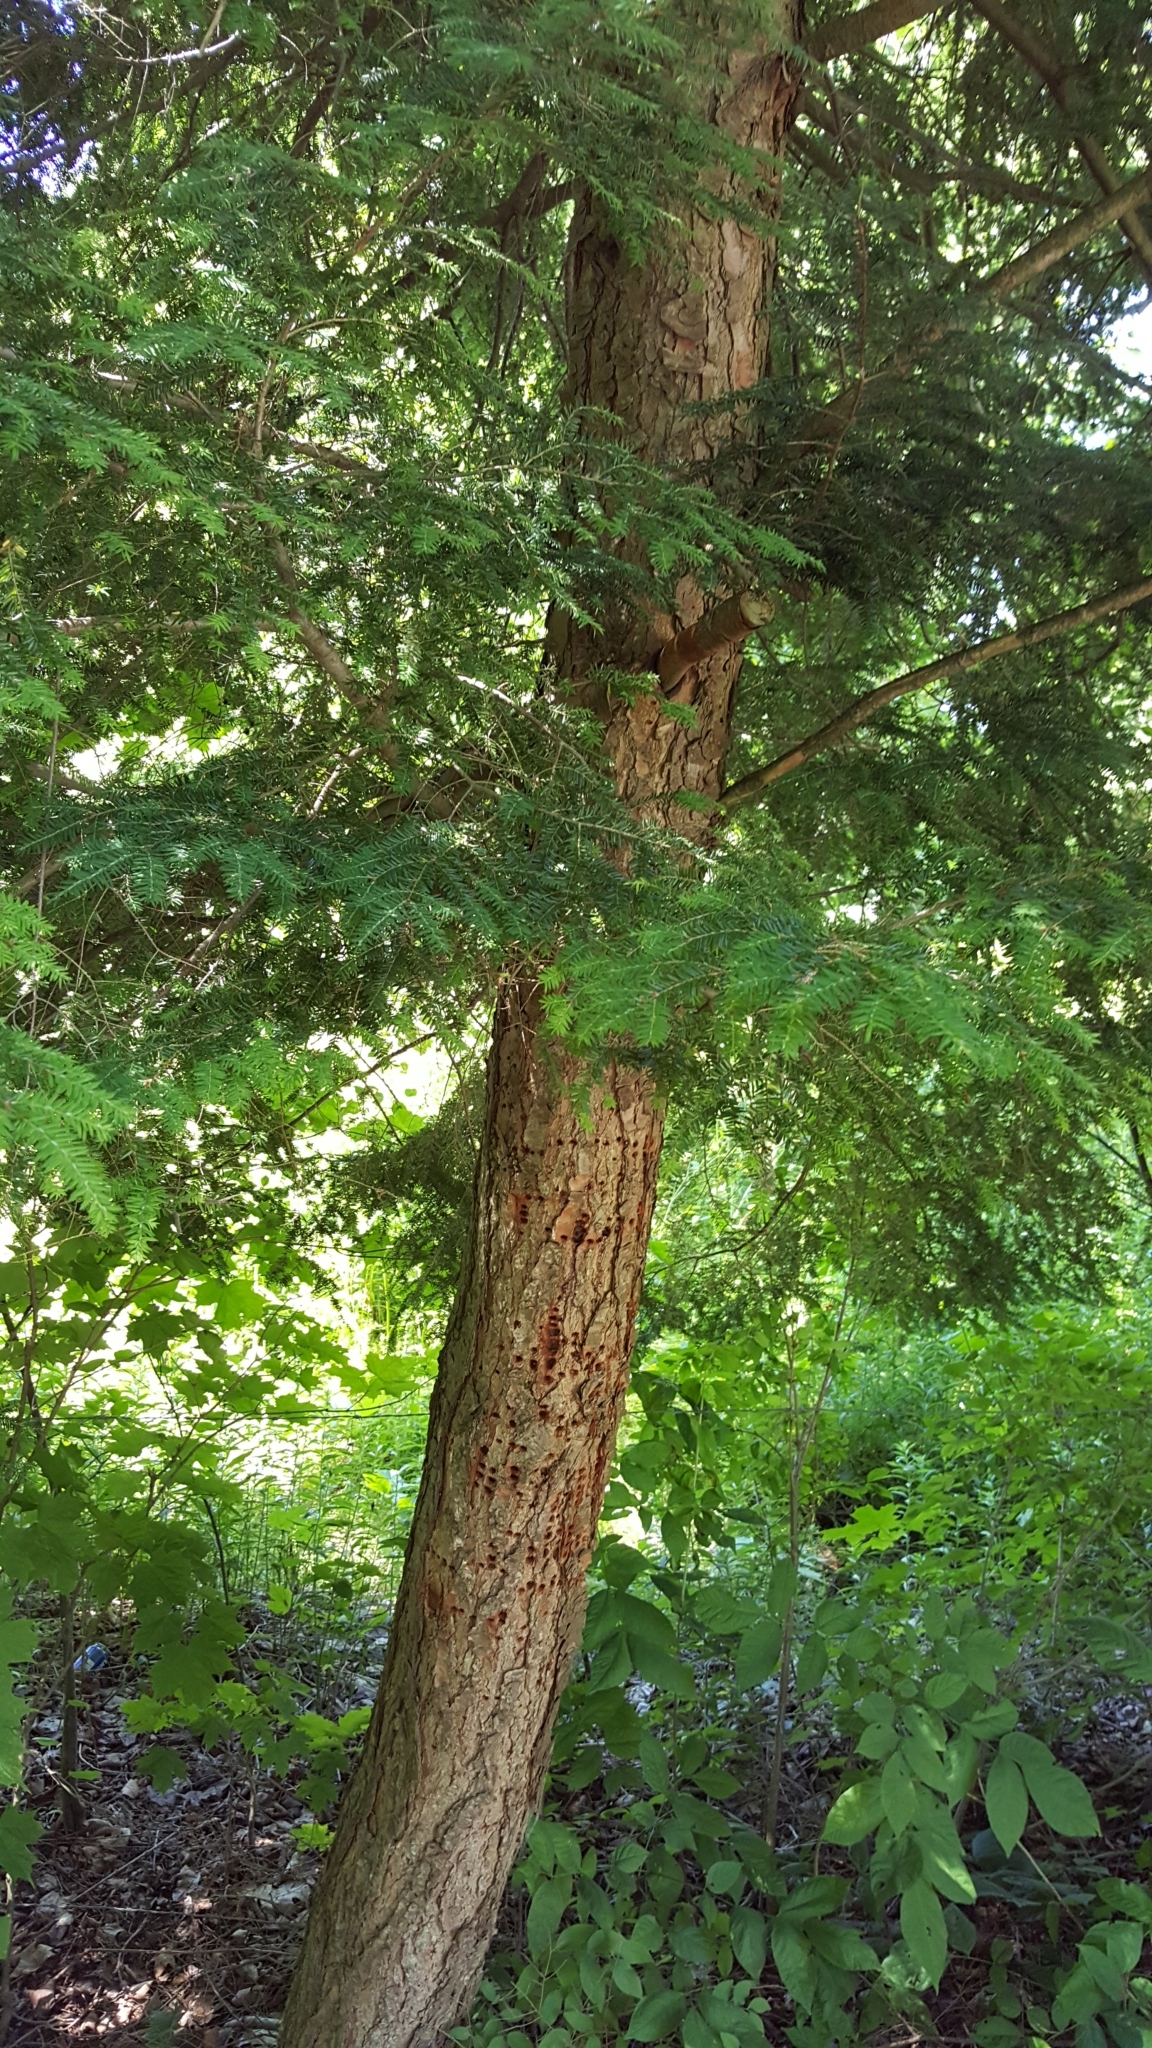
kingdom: Plantae
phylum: Tracheophyta
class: Pinopsida
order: Pinales
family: Pinaceae
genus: Tsuga
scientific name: Tsuga canadensis
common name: Eastern hemlock
